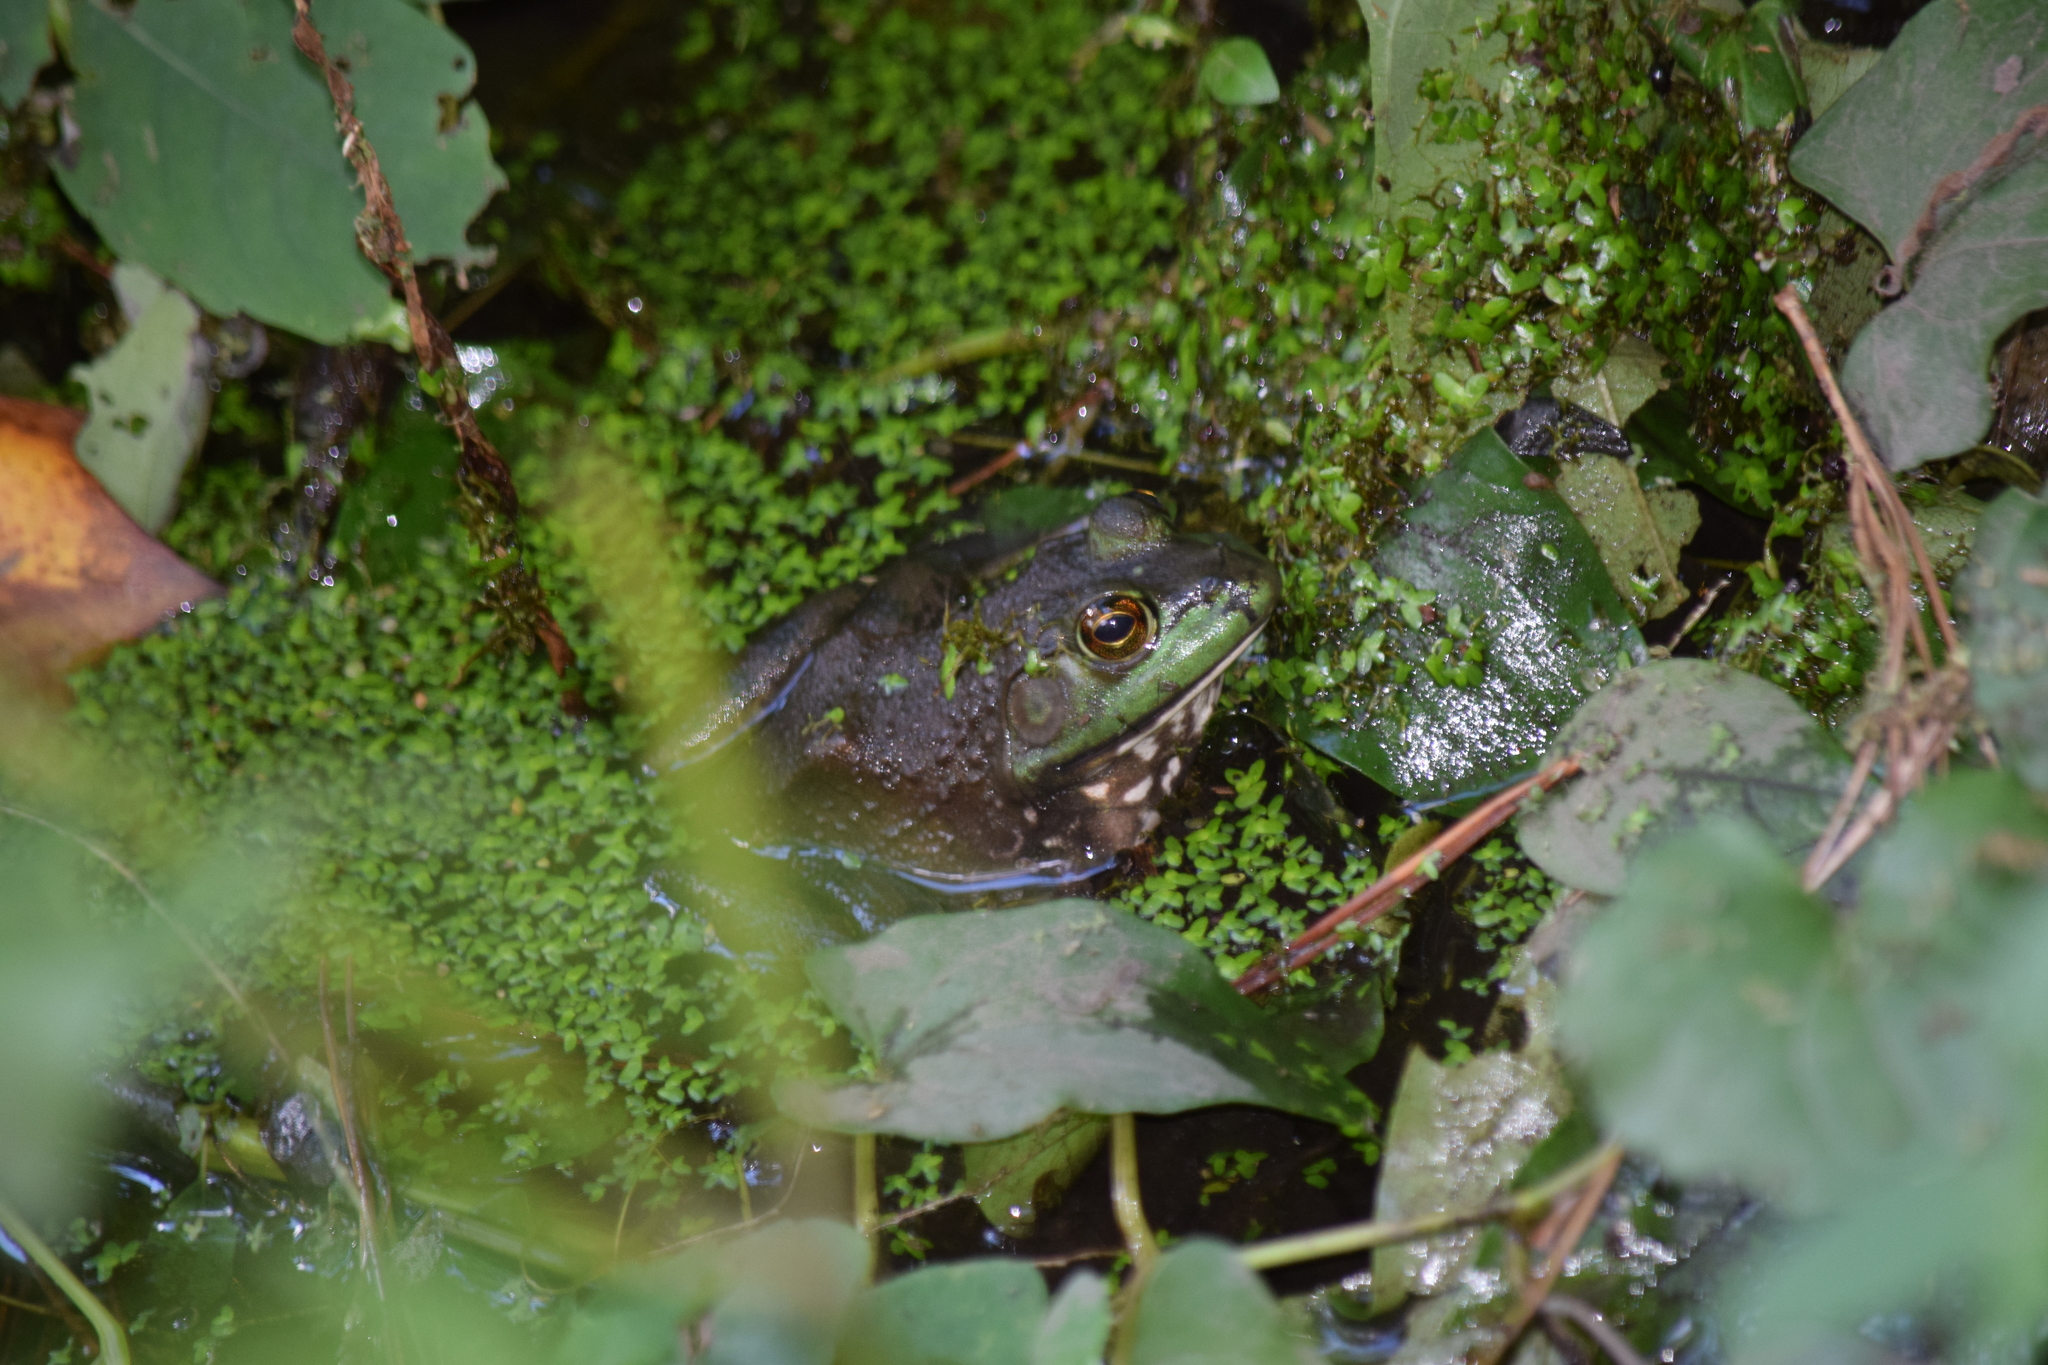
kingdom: Animalia
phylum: Chordata
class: Amphibia
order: Anura
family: Ranidae
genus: Lithobates
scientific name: Lithobates catesbeianus
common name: American bullfrog
